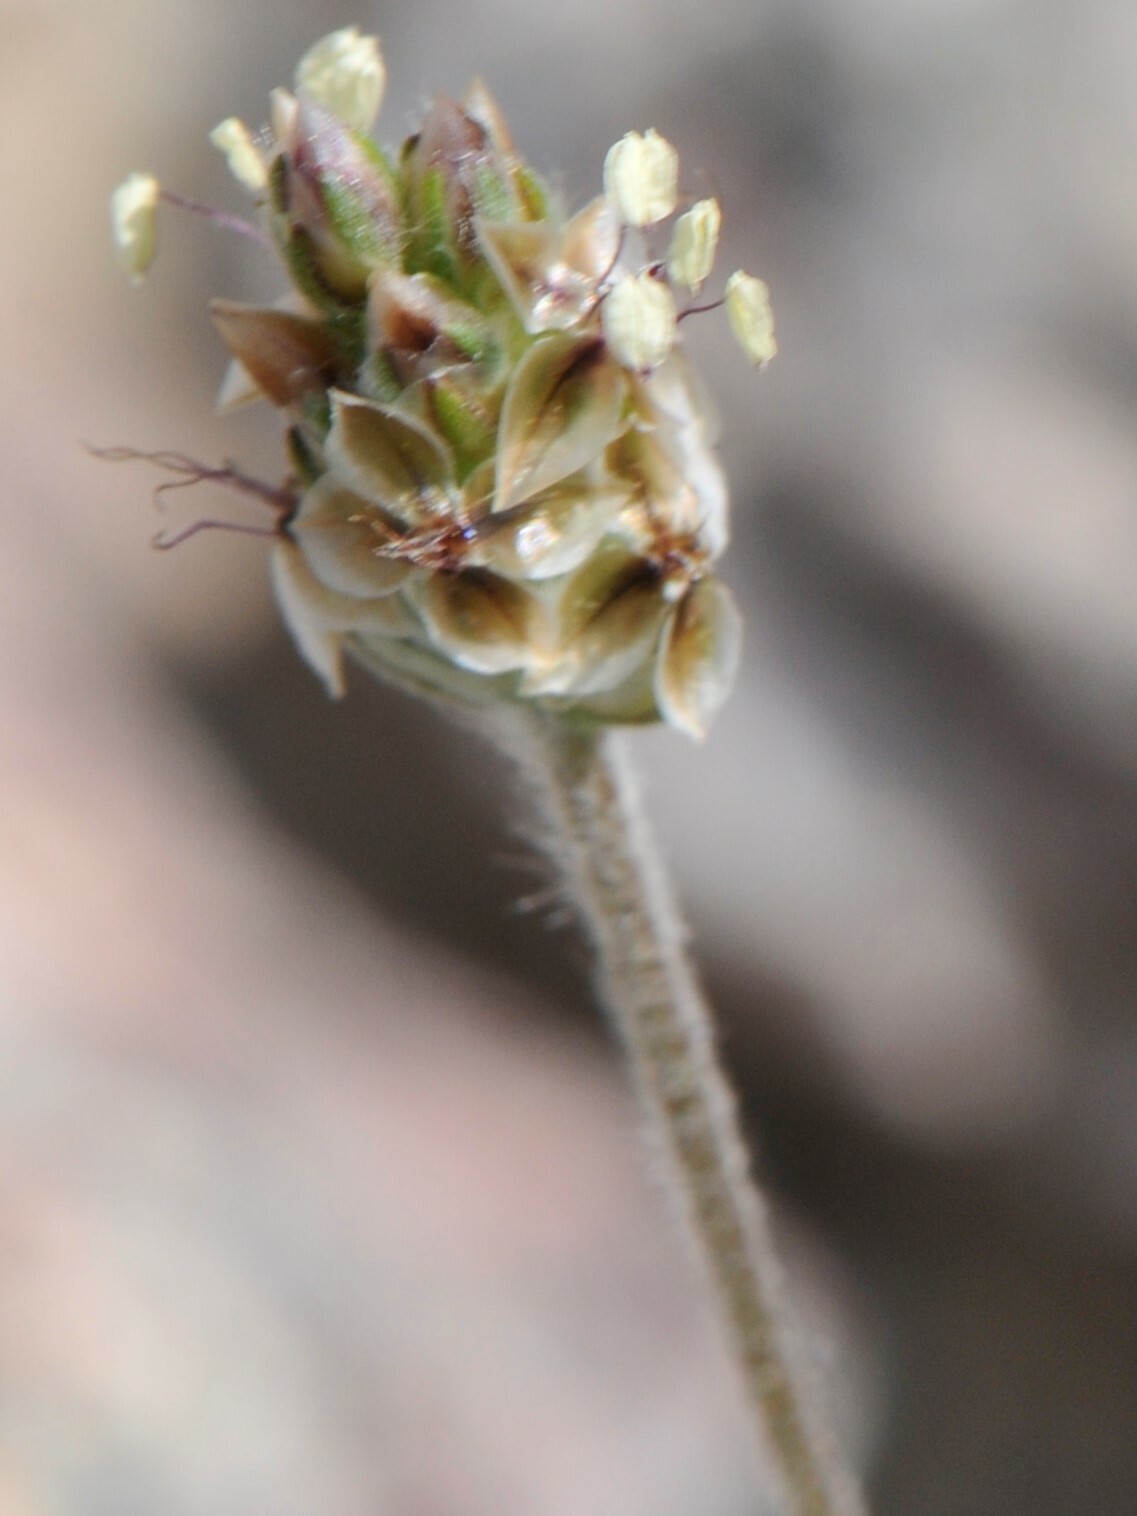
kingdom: Plantae
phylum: Tracheophyta
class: Magnoliopsida
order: Lamiales
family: Plantaginaceae
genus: Plantago
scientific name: Plantago ovata
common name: Blond plantain
